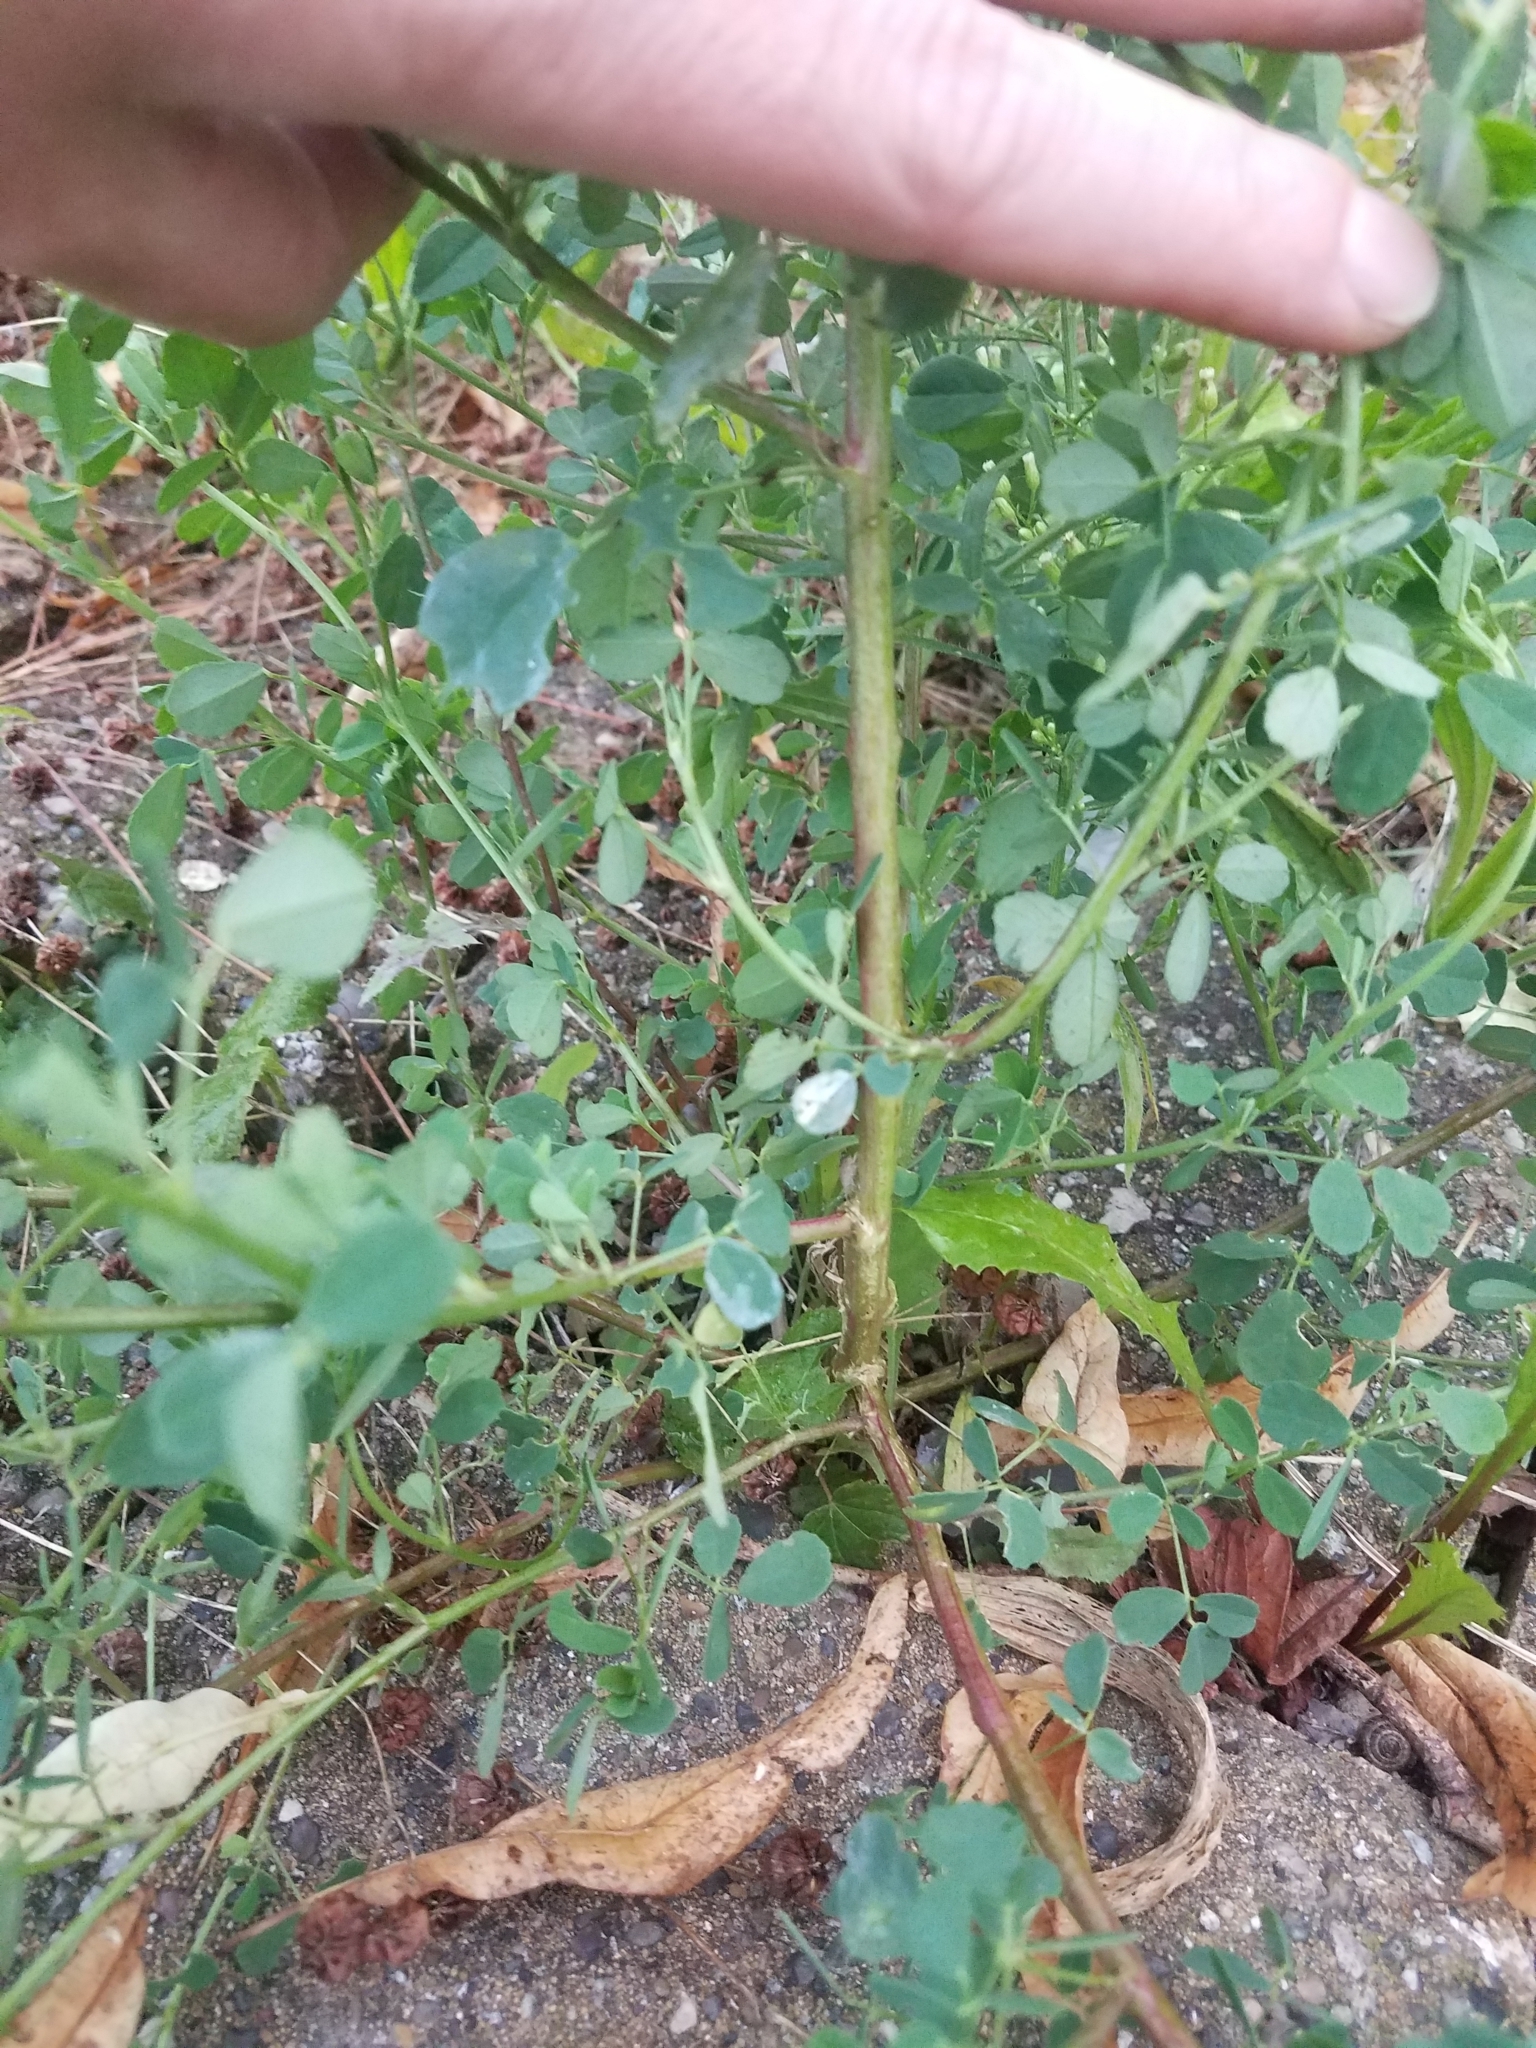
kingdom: Plantae
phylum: Tracheophyta
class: Magnoliopsida
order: Fabales
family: Fabaceae
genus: Melilotus
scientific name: Melilotus albus
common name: White melilot
